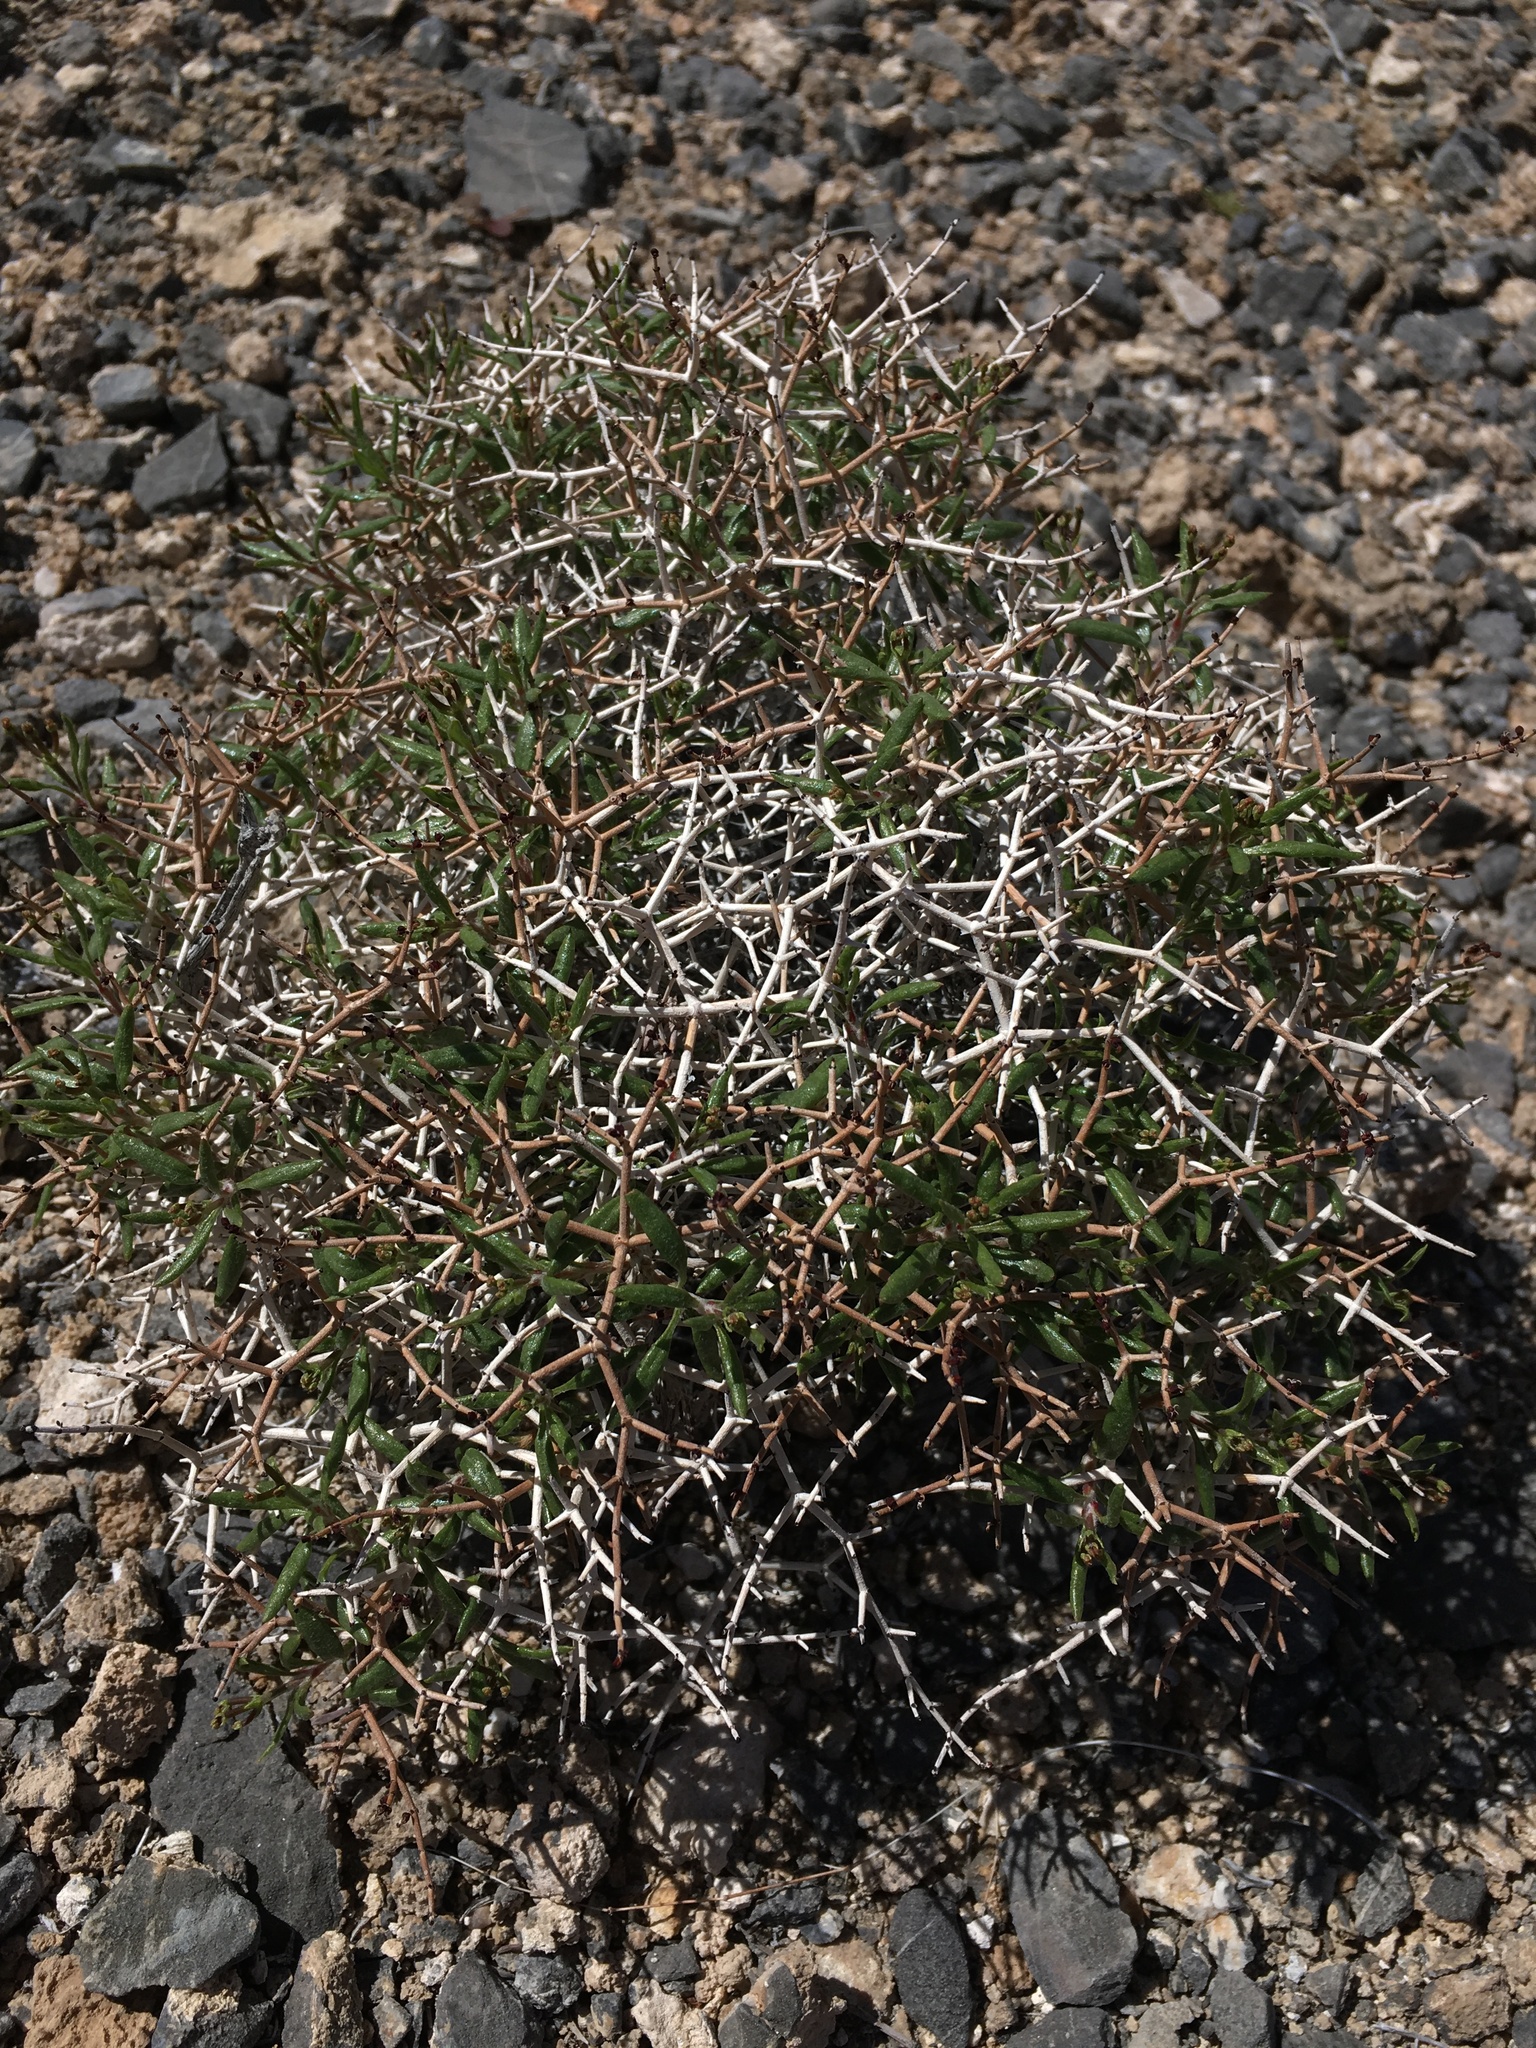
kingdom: Plantae
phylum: Tracheophyta
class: Magnoliopsida
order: Caryophyllales
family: Polygonaceae
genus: Eriogonum
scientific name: Eriogonum heermannii
